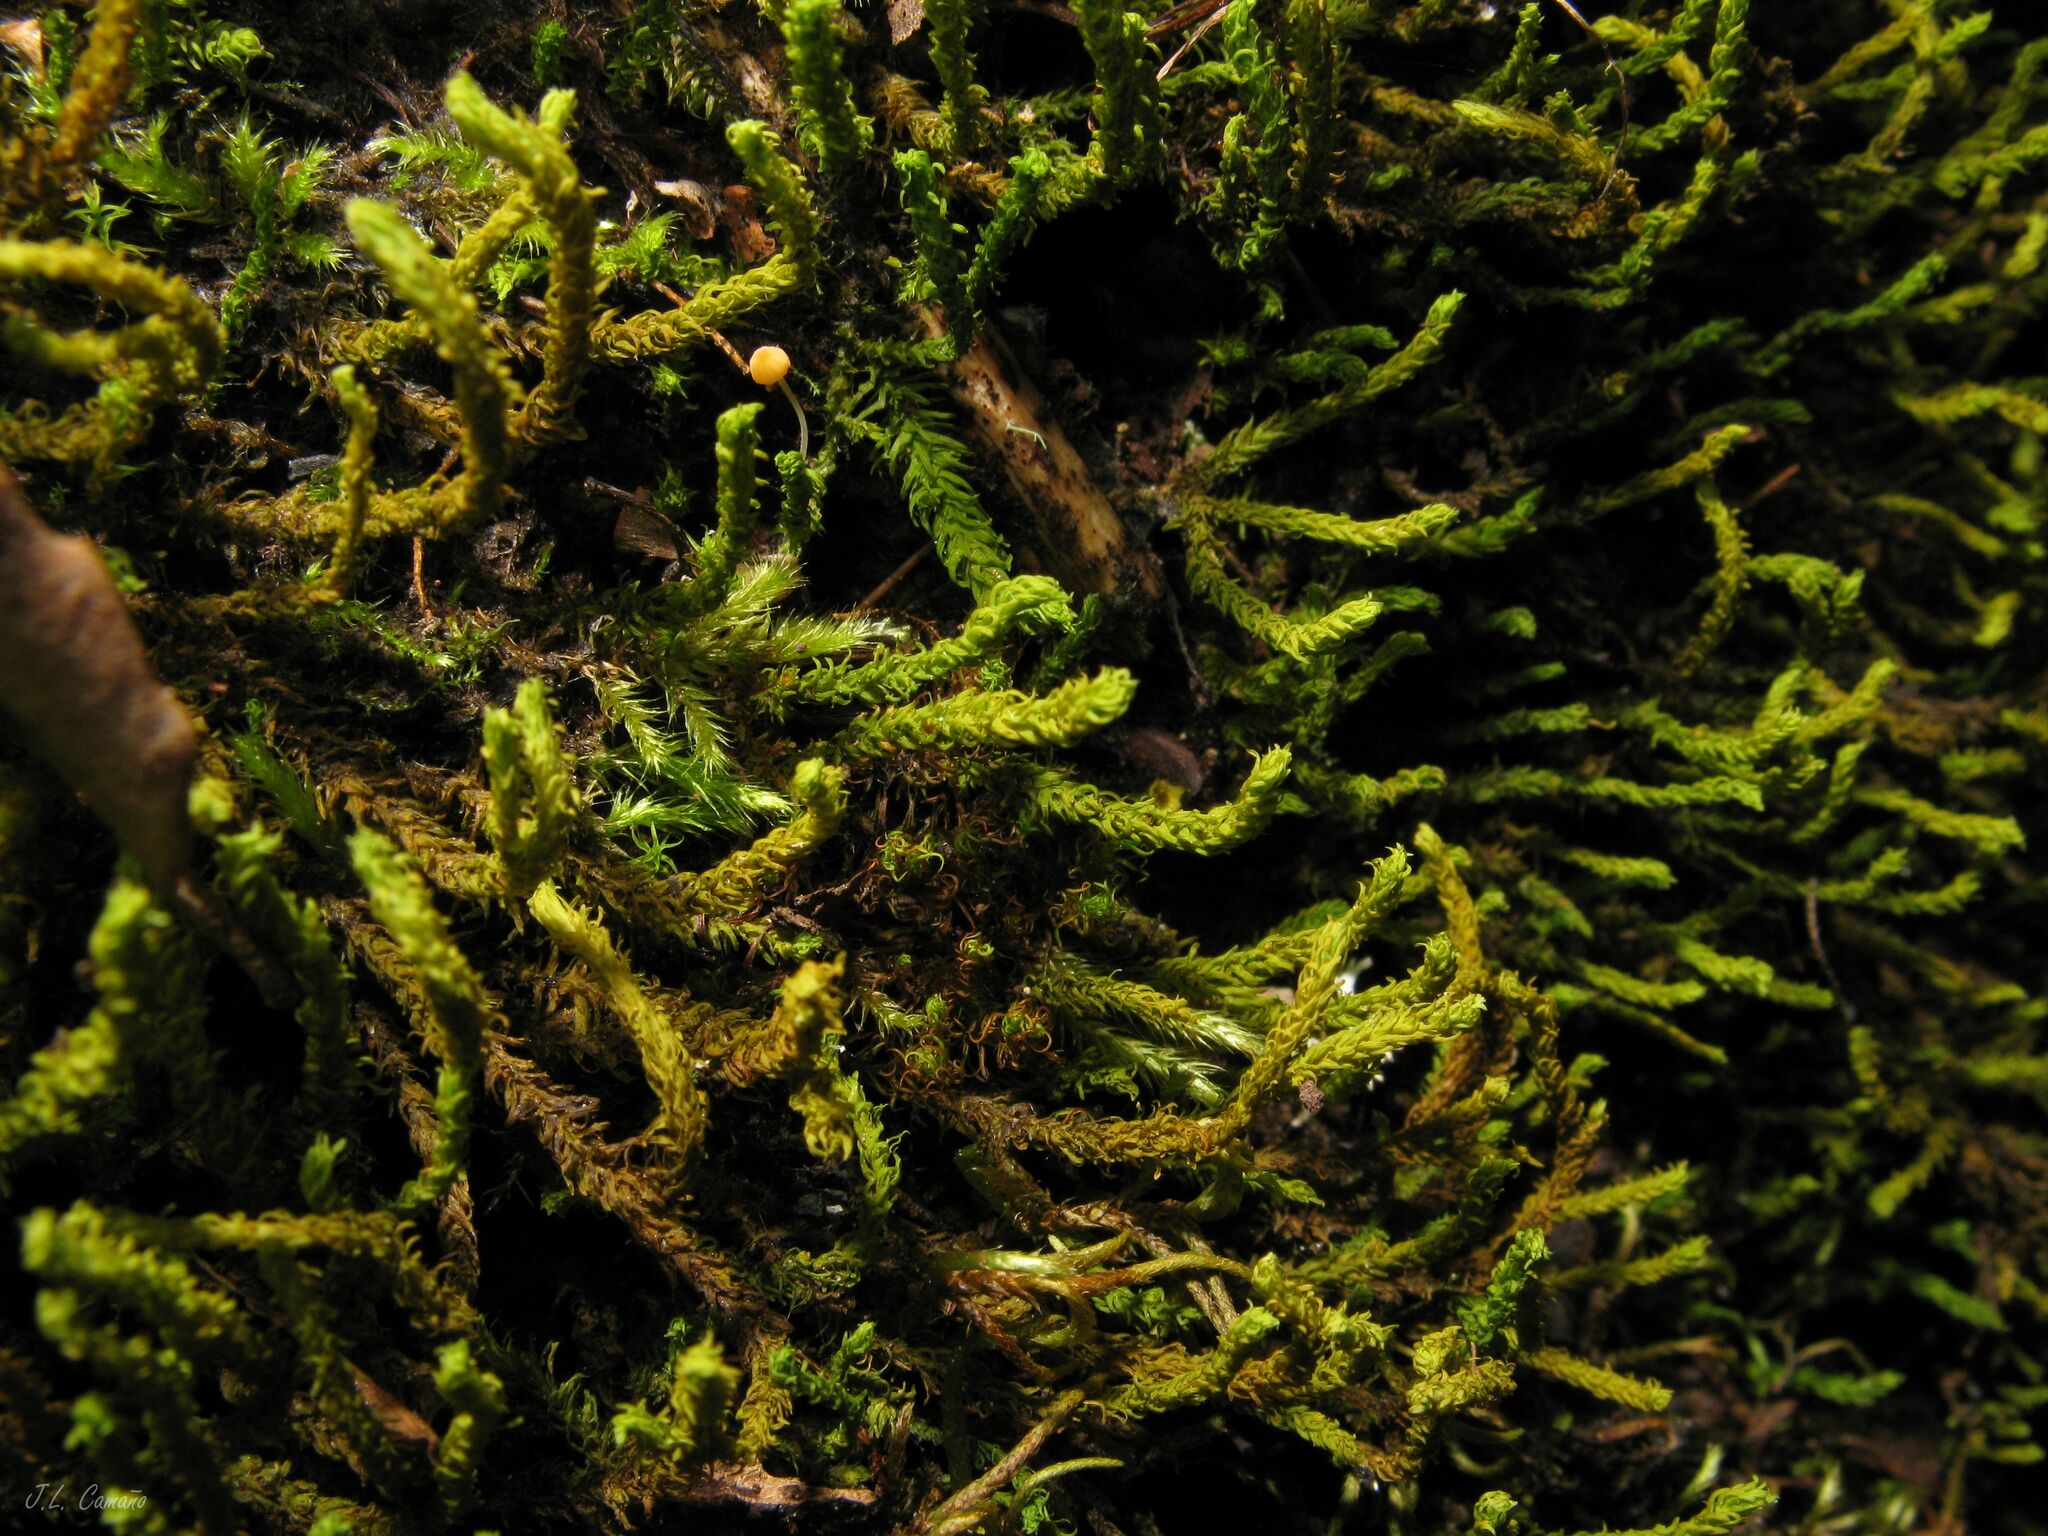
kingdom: Plantae
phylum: Bryophyta
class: Bryopsida
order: Hypnales
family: Anomodontaceae
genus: Anomodon
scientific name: Anomodon viticulosus
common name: Tall anomodon
